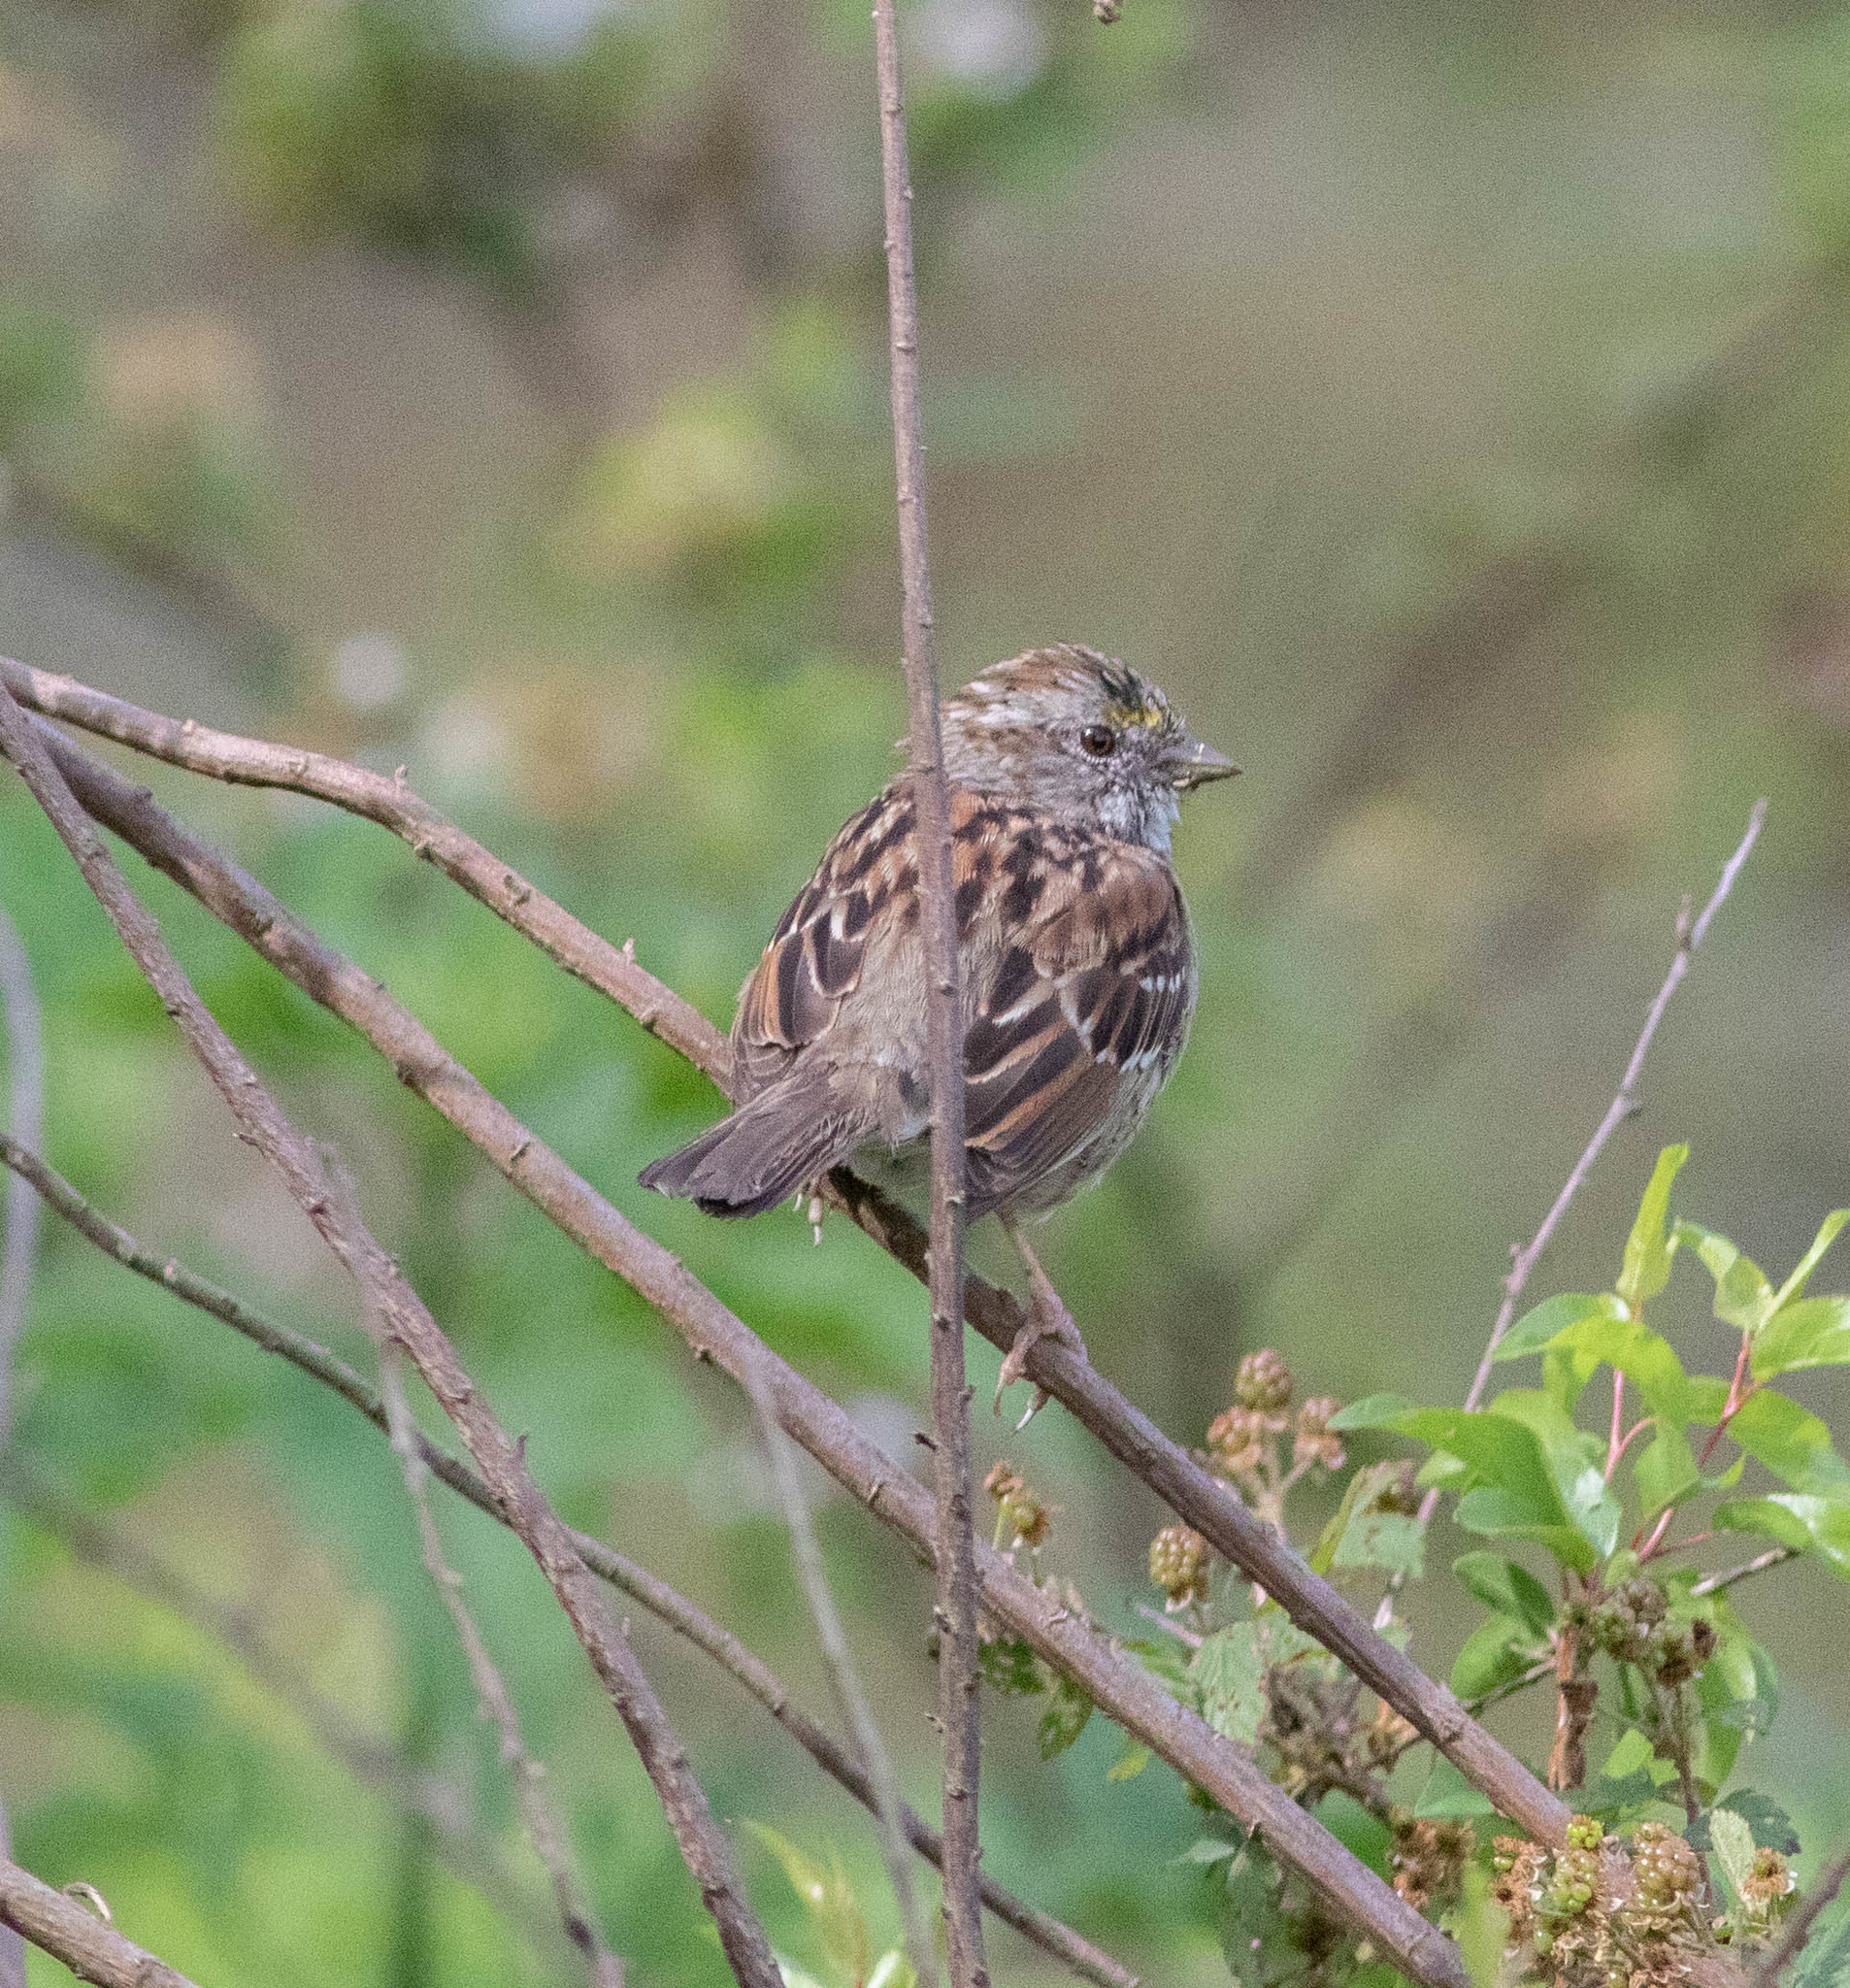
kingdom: Animalia
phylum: Chordata
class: Aves
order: Passeriformes
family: Passerellidae
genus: Zonotrichia
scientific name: Zonotrichia albicollis
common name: White-throated sparrow
